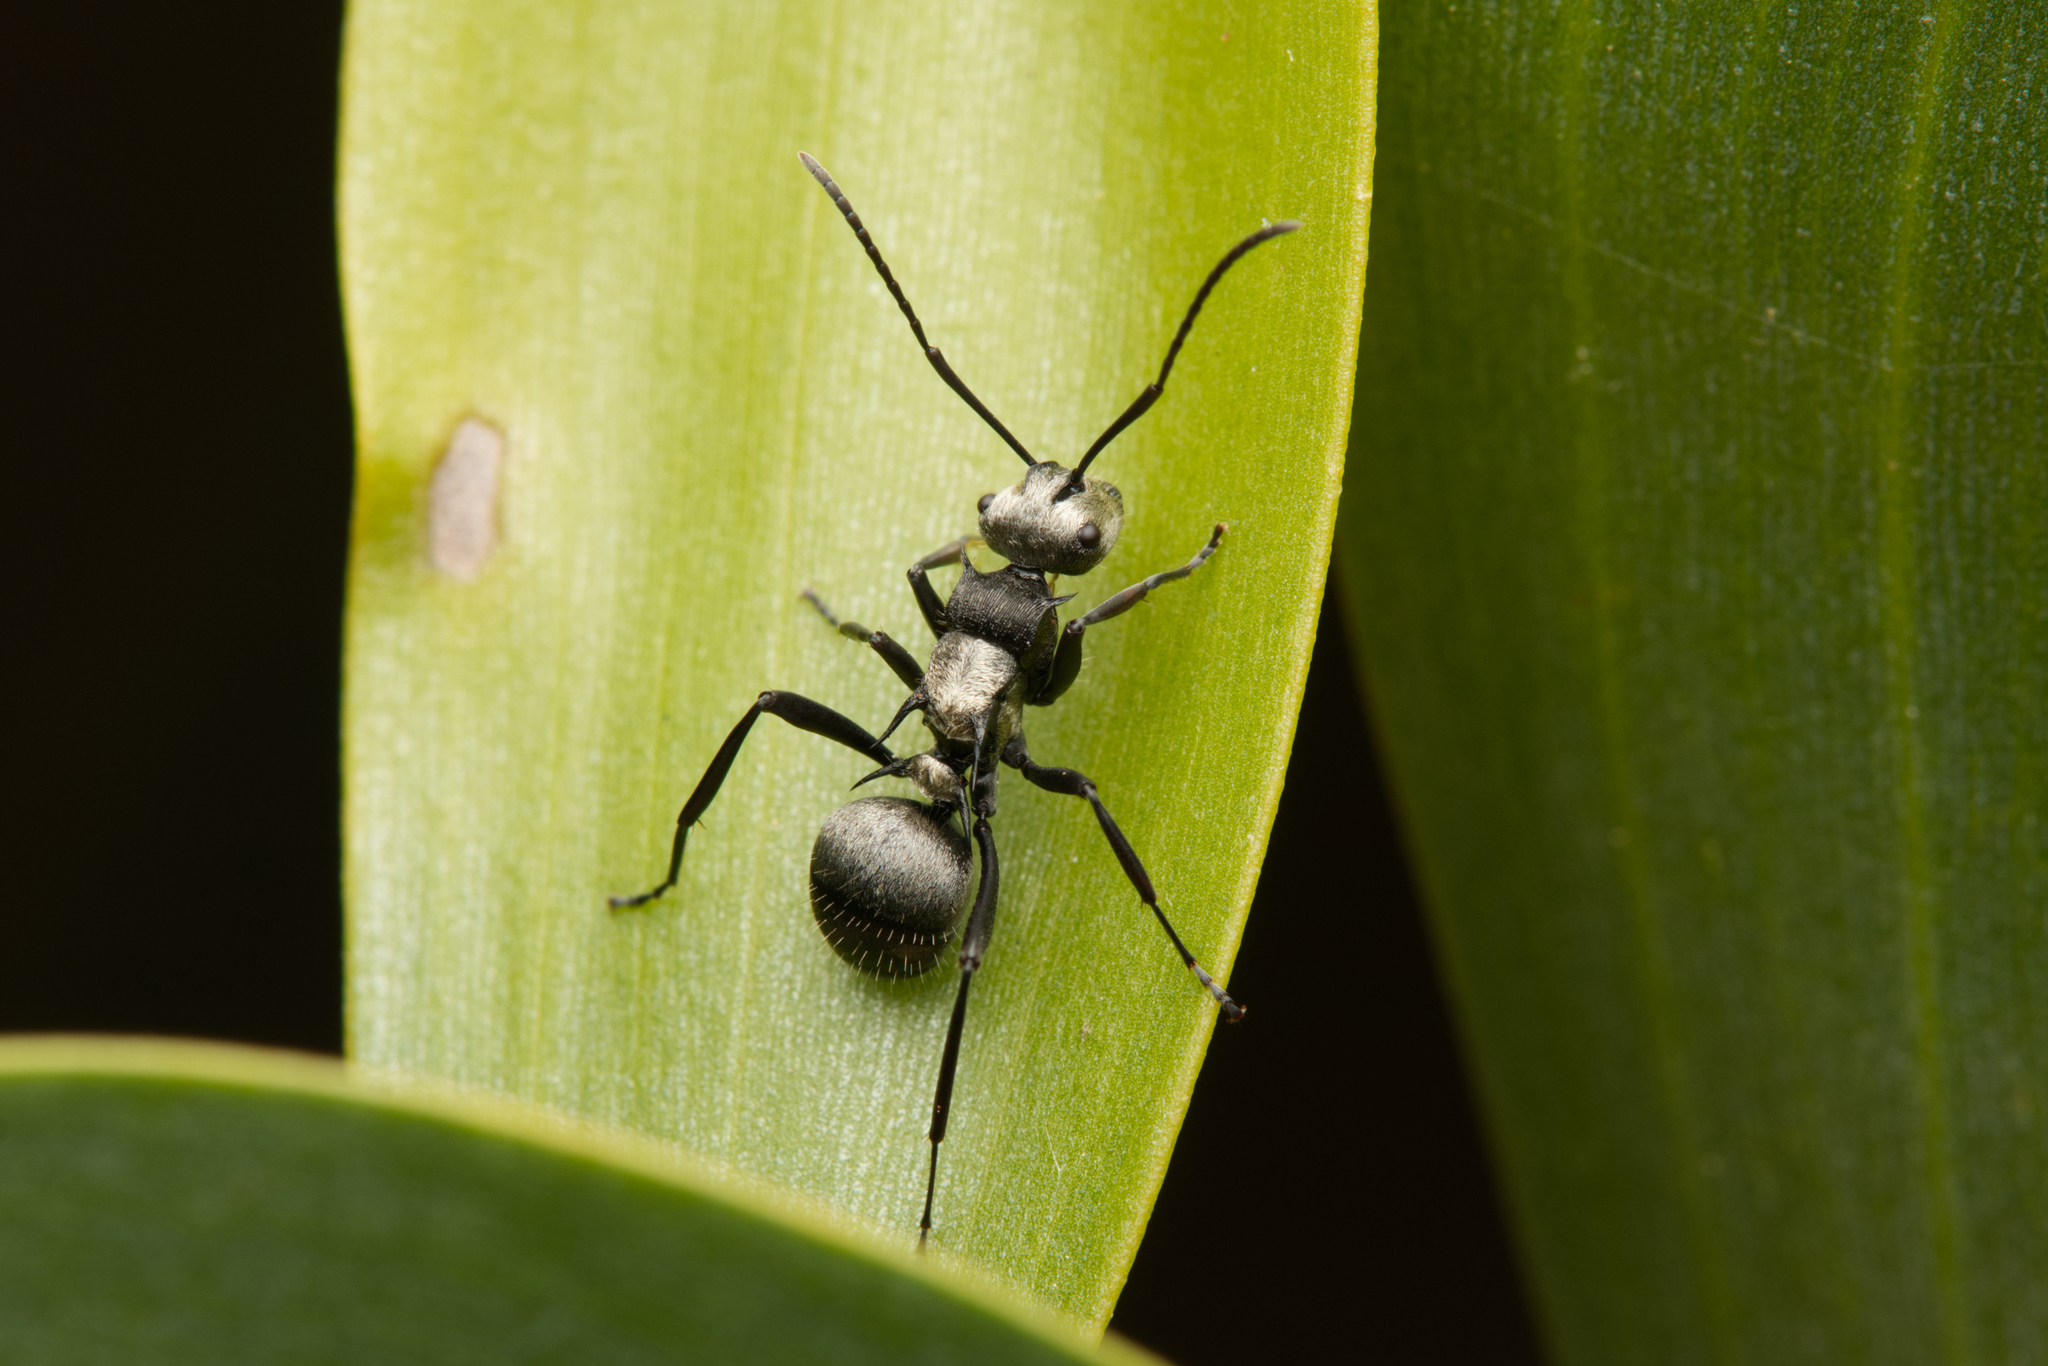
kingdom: Animalia
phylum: Arthropoda
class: Insecta
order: Hymenoptera
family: Formicidae
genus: Polyrhachis
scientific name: Polyrhachis daemeli
